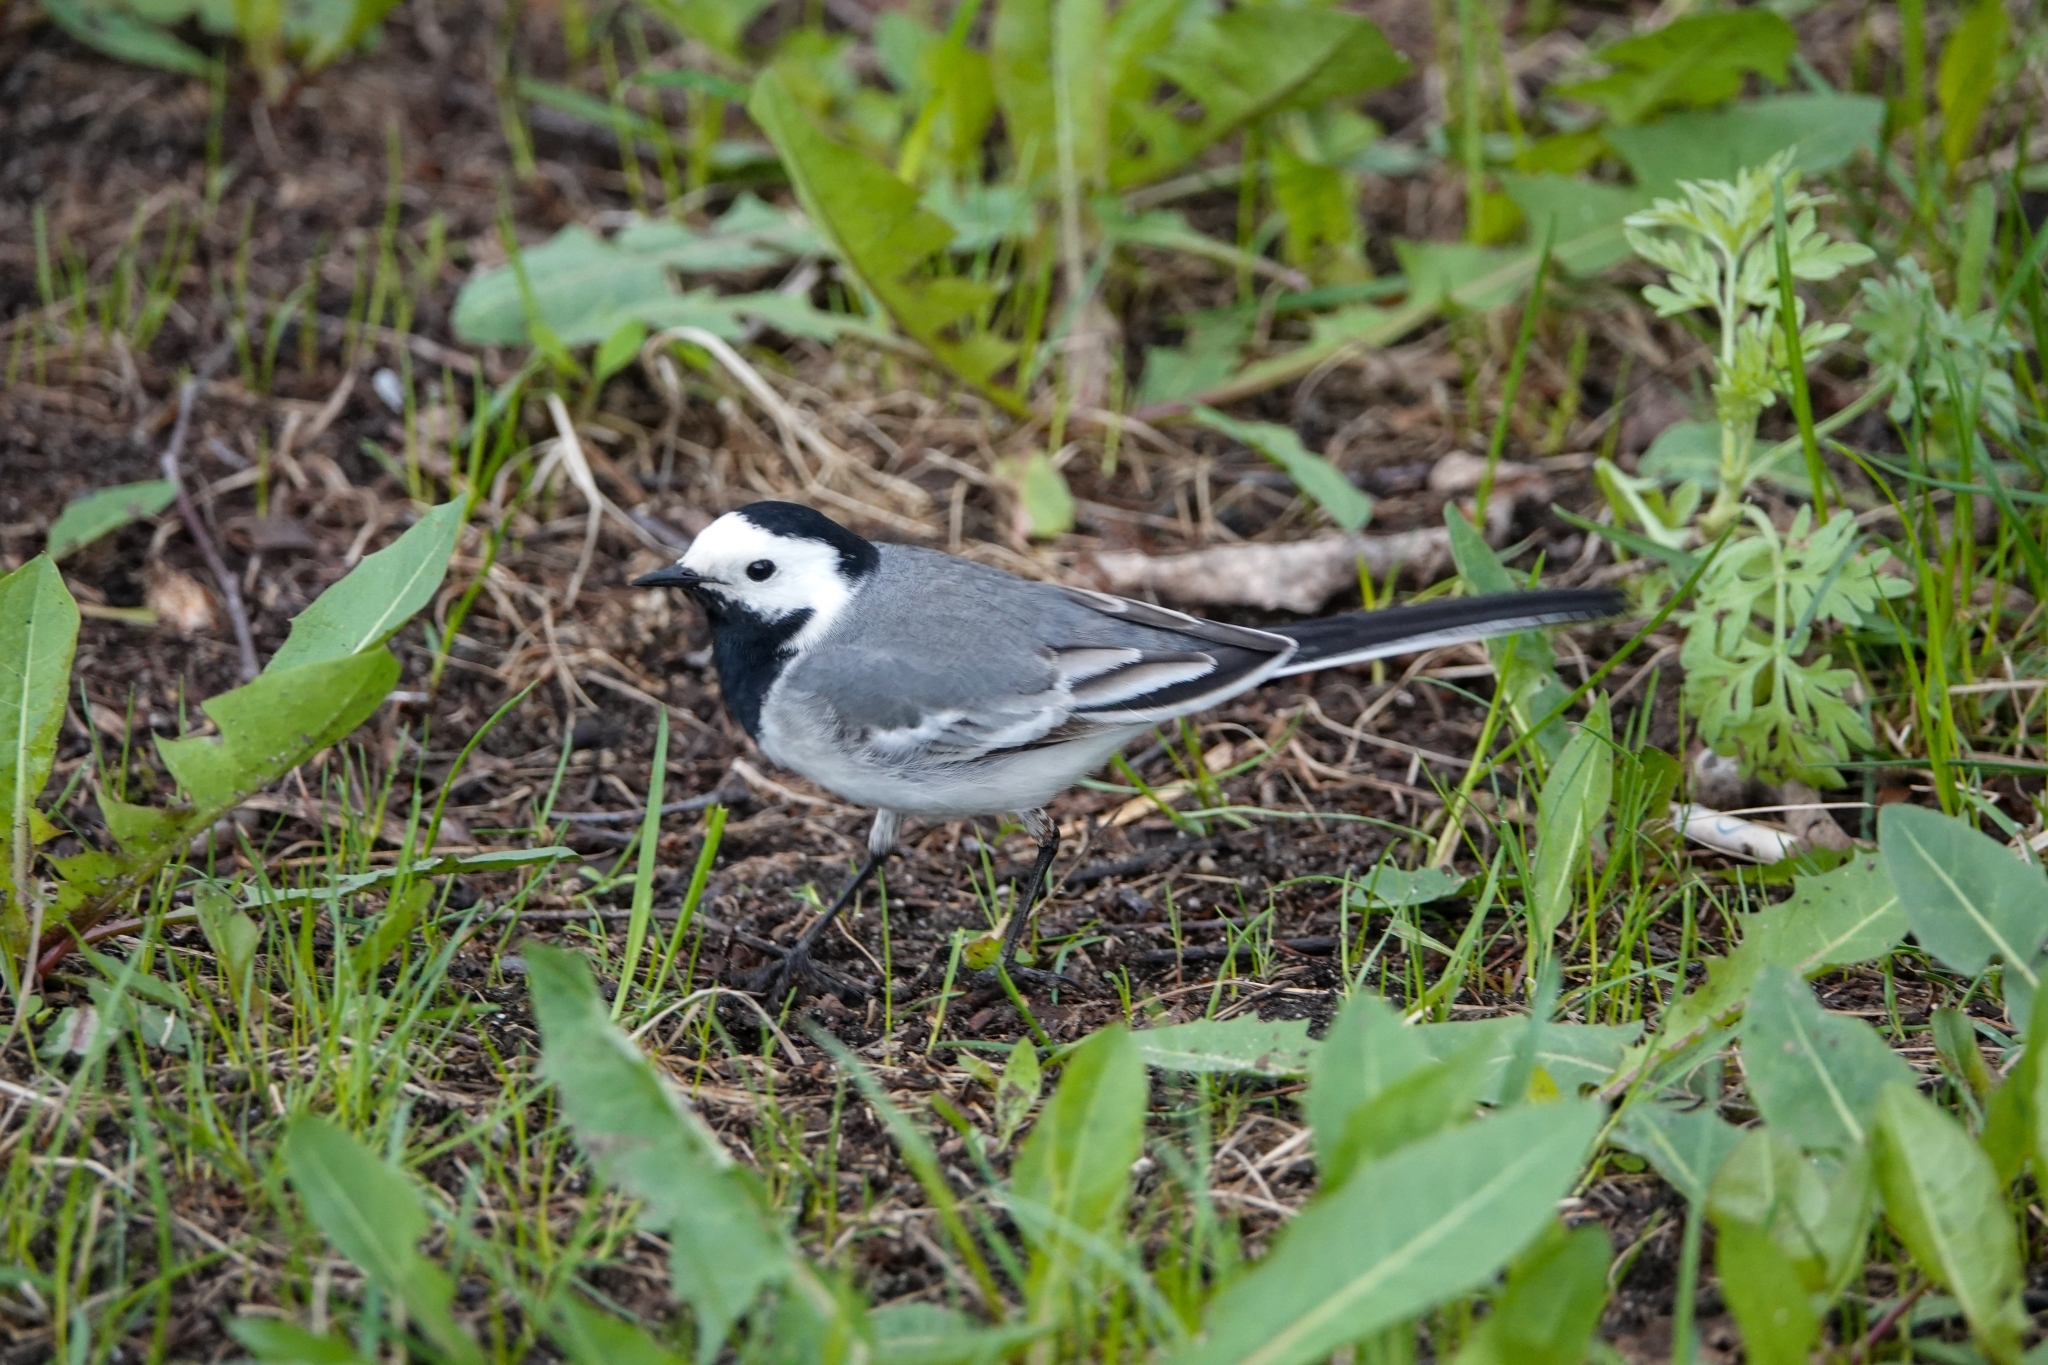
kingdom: Animalia
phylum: Chordata
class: Aves
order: Passeriformes
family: Motacillidae
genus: Motacilla
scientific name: Motacilla alba
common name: White wagtail
